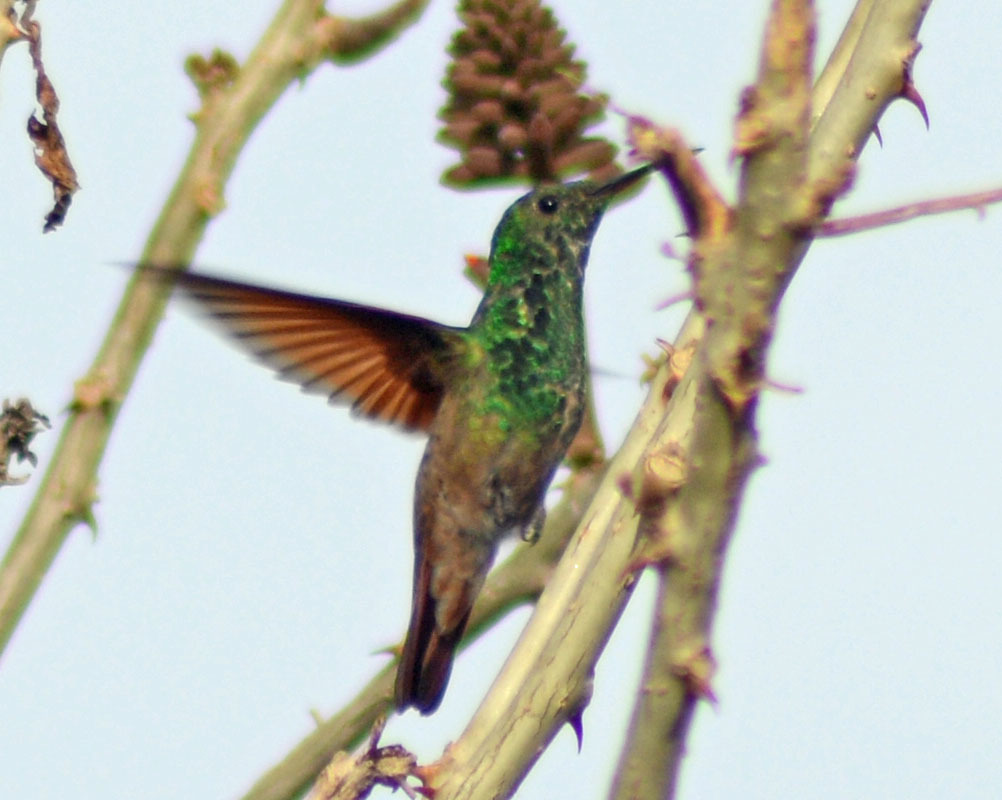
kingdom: Animalia
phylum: Chordata
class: Aves
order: Apodiformes
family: Trochilidae
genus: Saucerottia
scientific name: Saucerottia beryllina
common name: Berylline hummingbird
